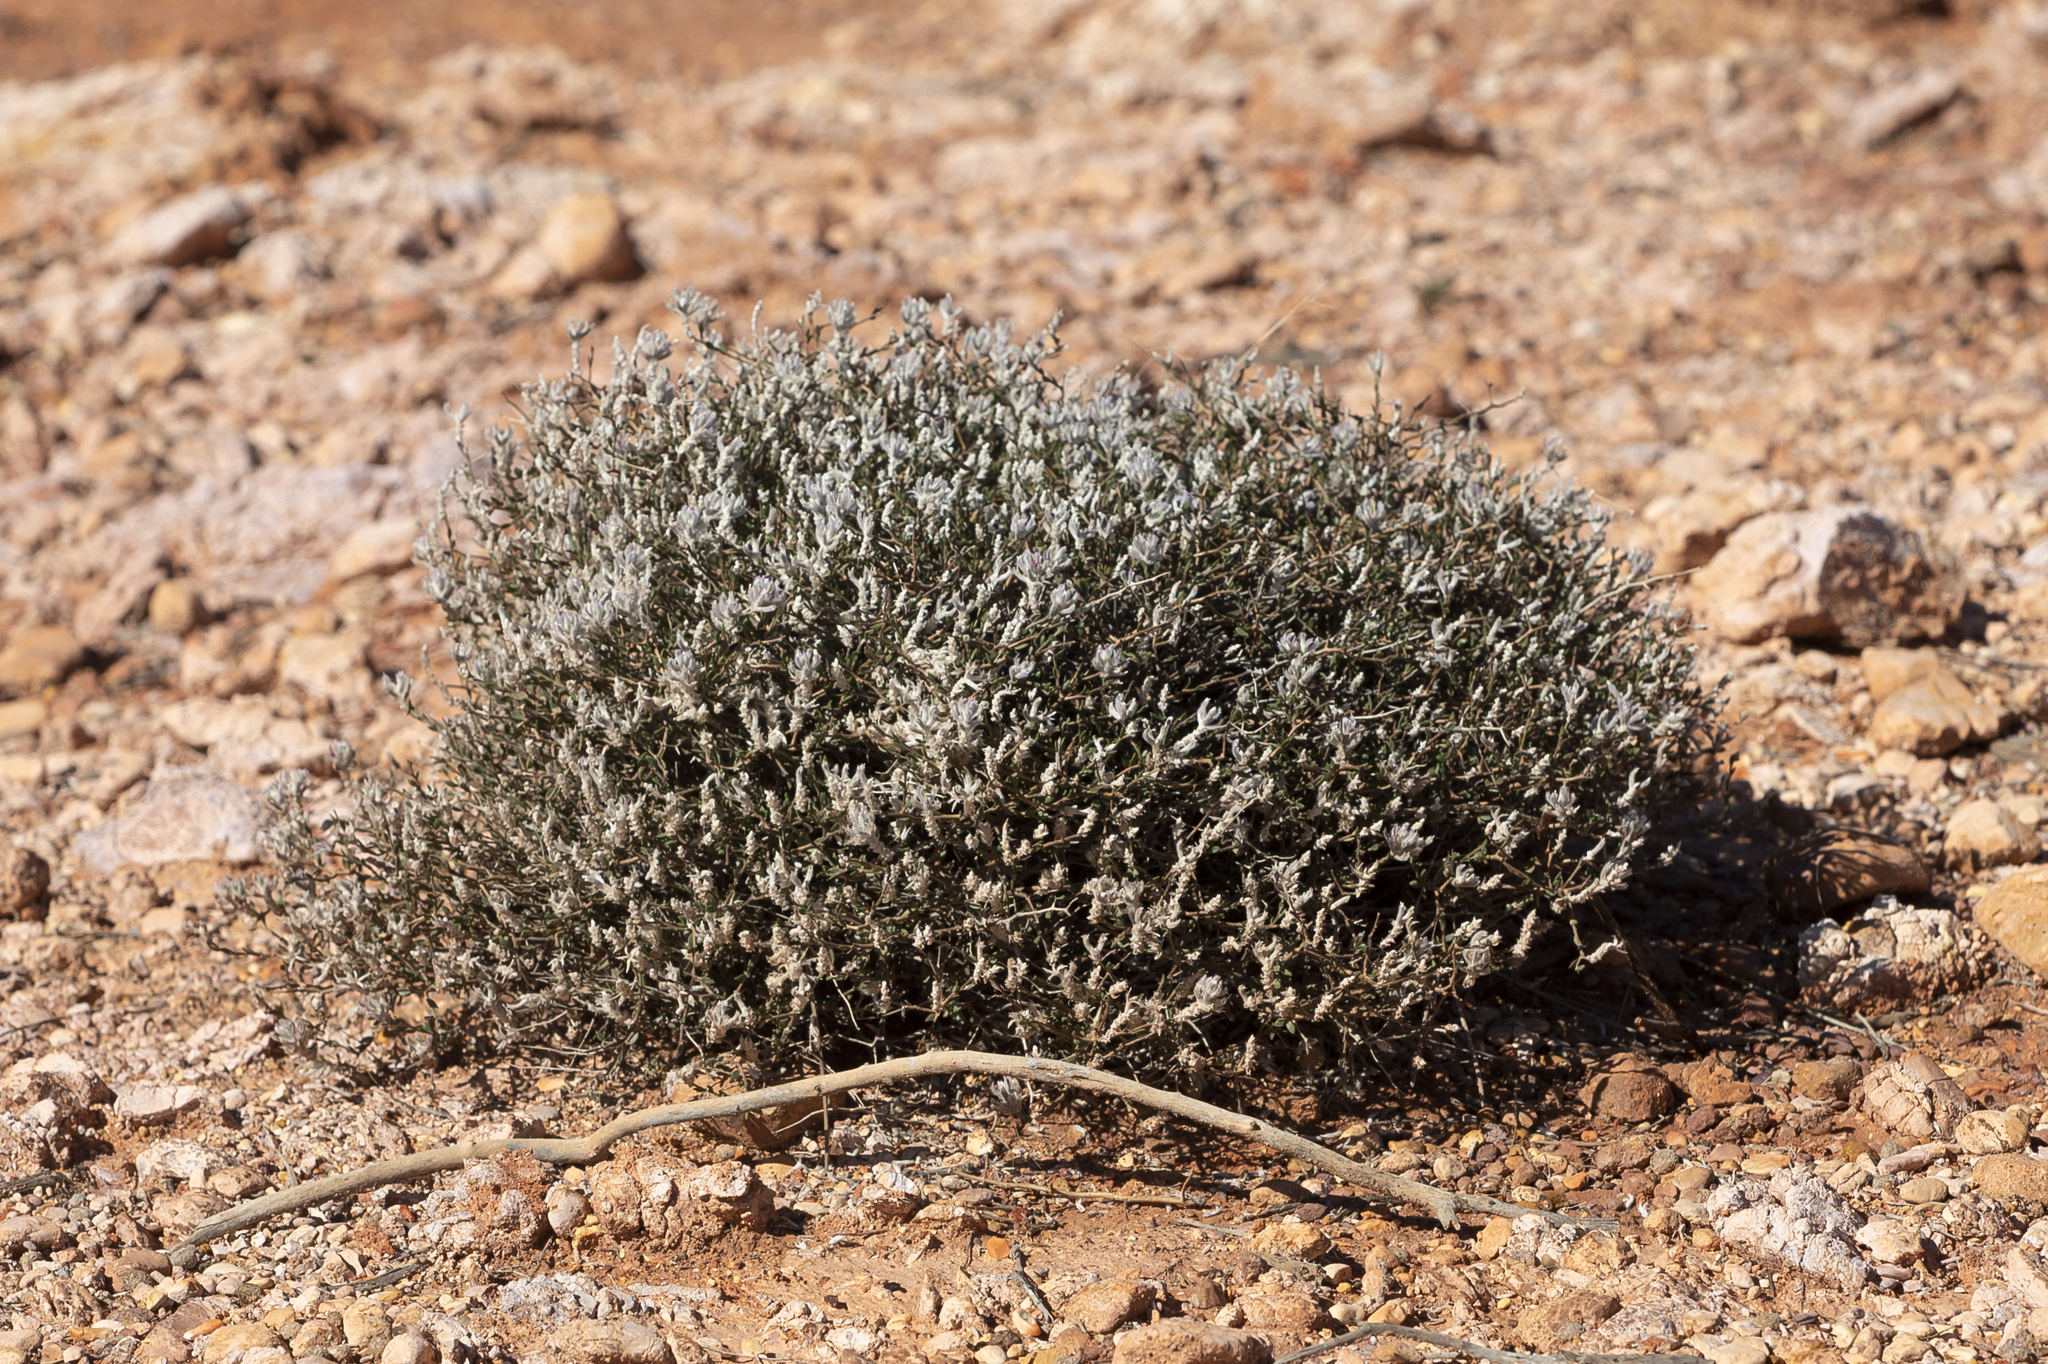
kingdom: Plantae
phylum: Tracheophyta
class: Magnoliopsida
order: Caryophyllales
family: Amaranthaceae
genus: Ptilotus
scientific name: Ptilotus barkeri
